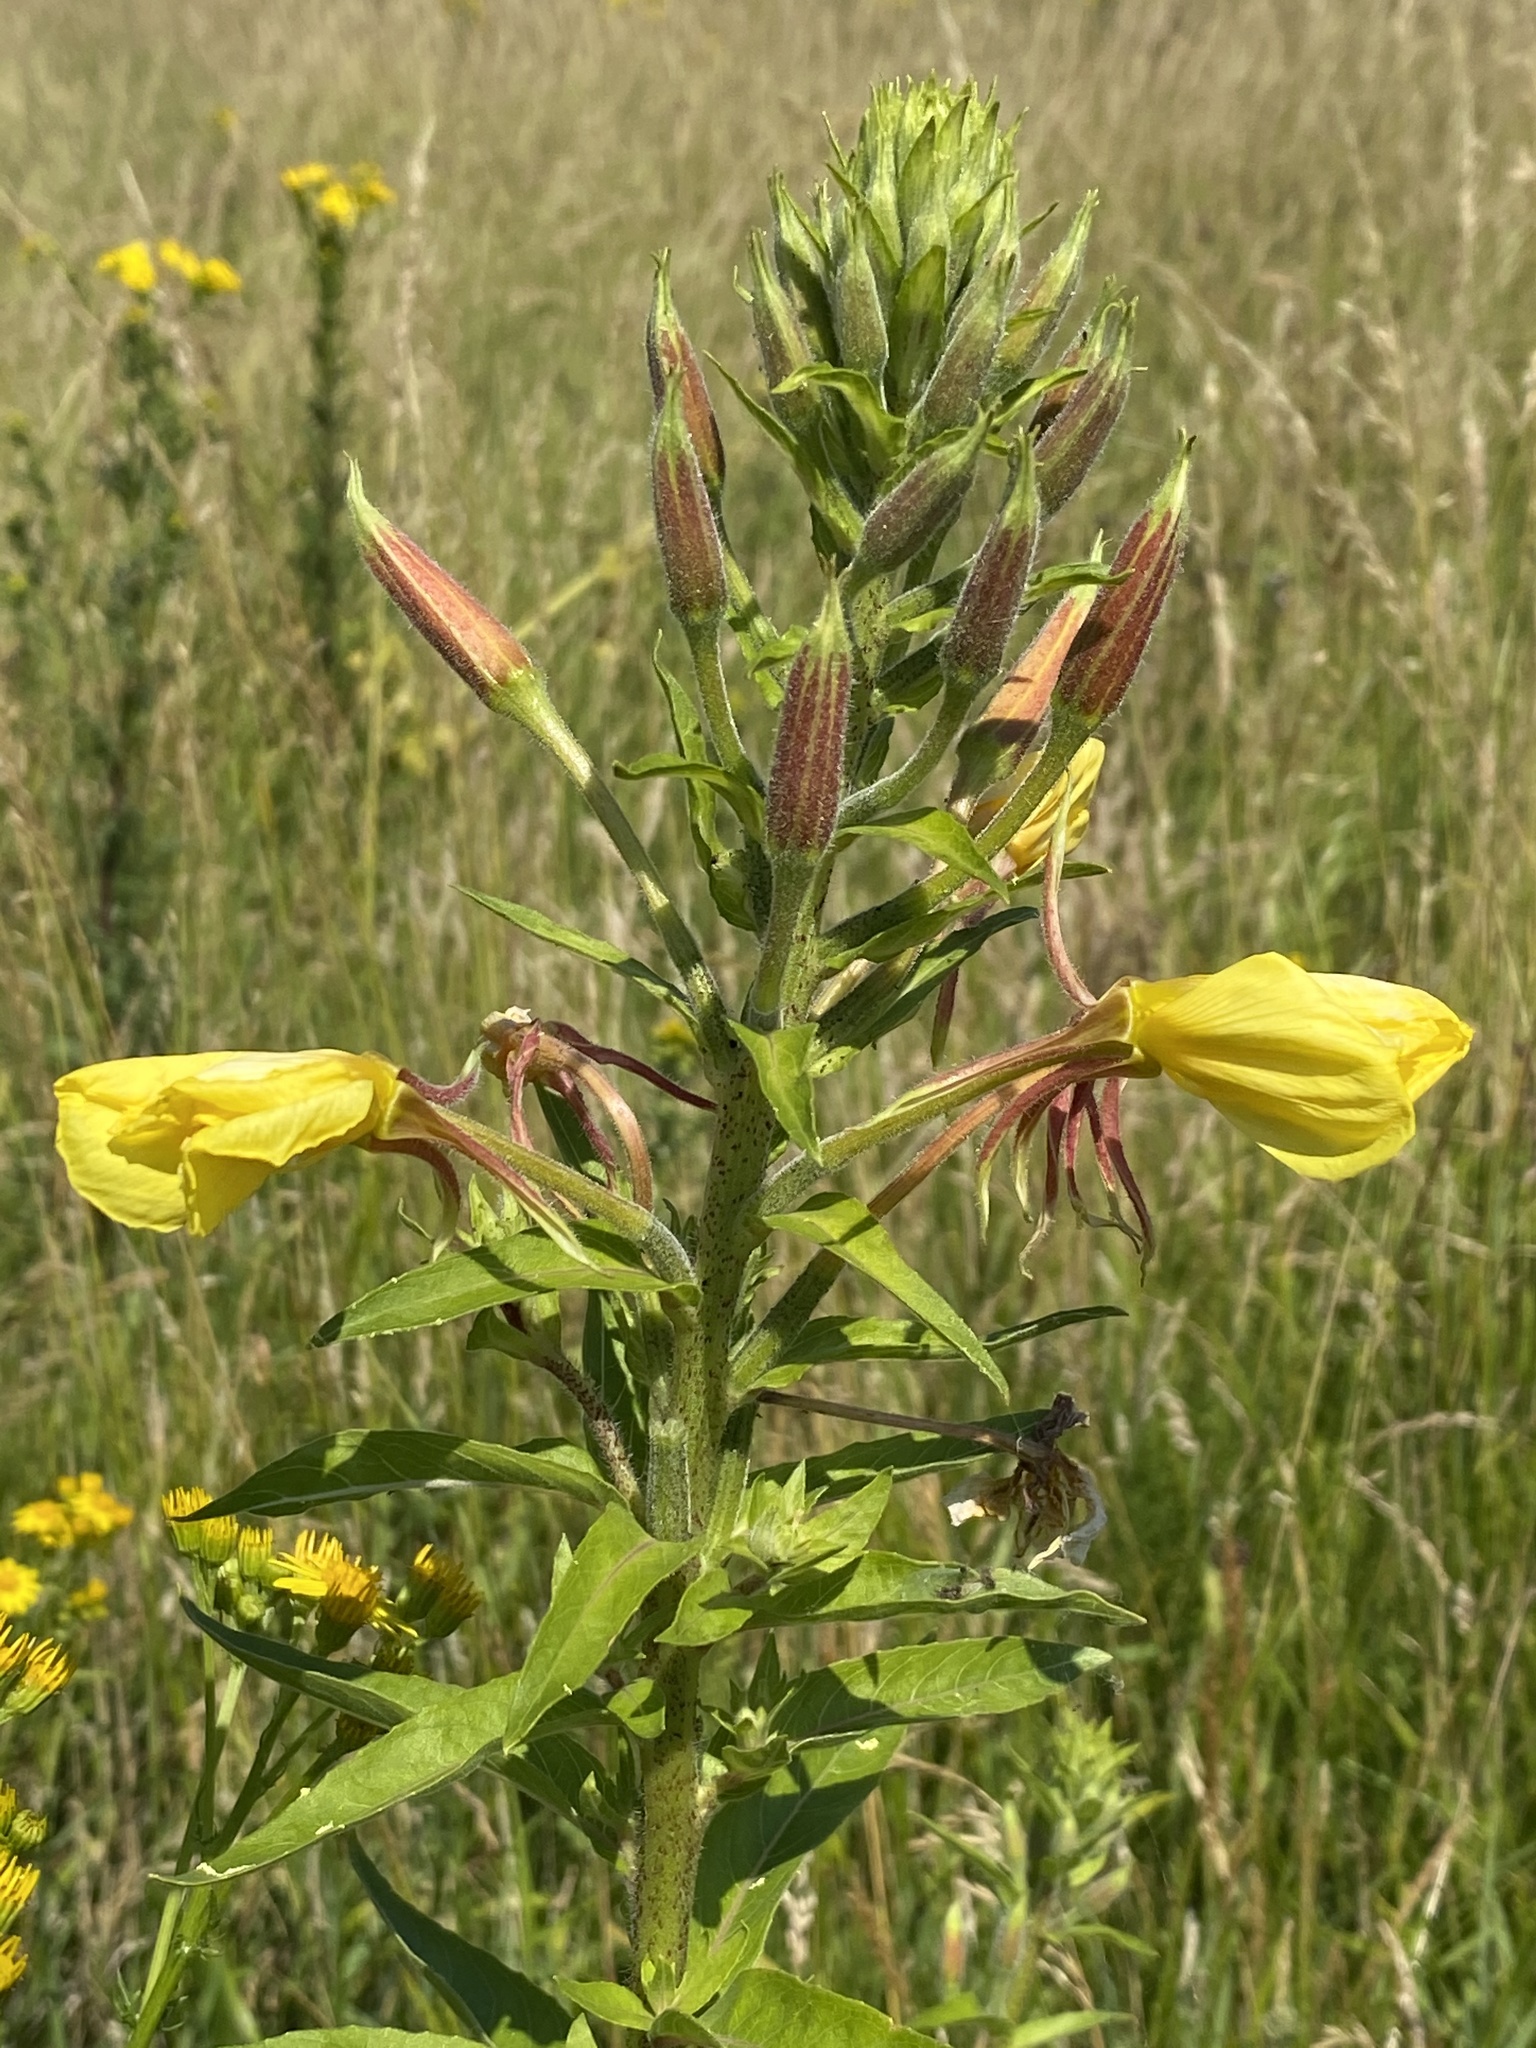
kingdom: Plantae
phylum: Tracheophyta
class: Magnoliopsida
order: Myrtales
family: Onagraceae
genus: Oenothera
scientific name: Oenothera glazioviana
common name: Large-flowered evening-primrose
